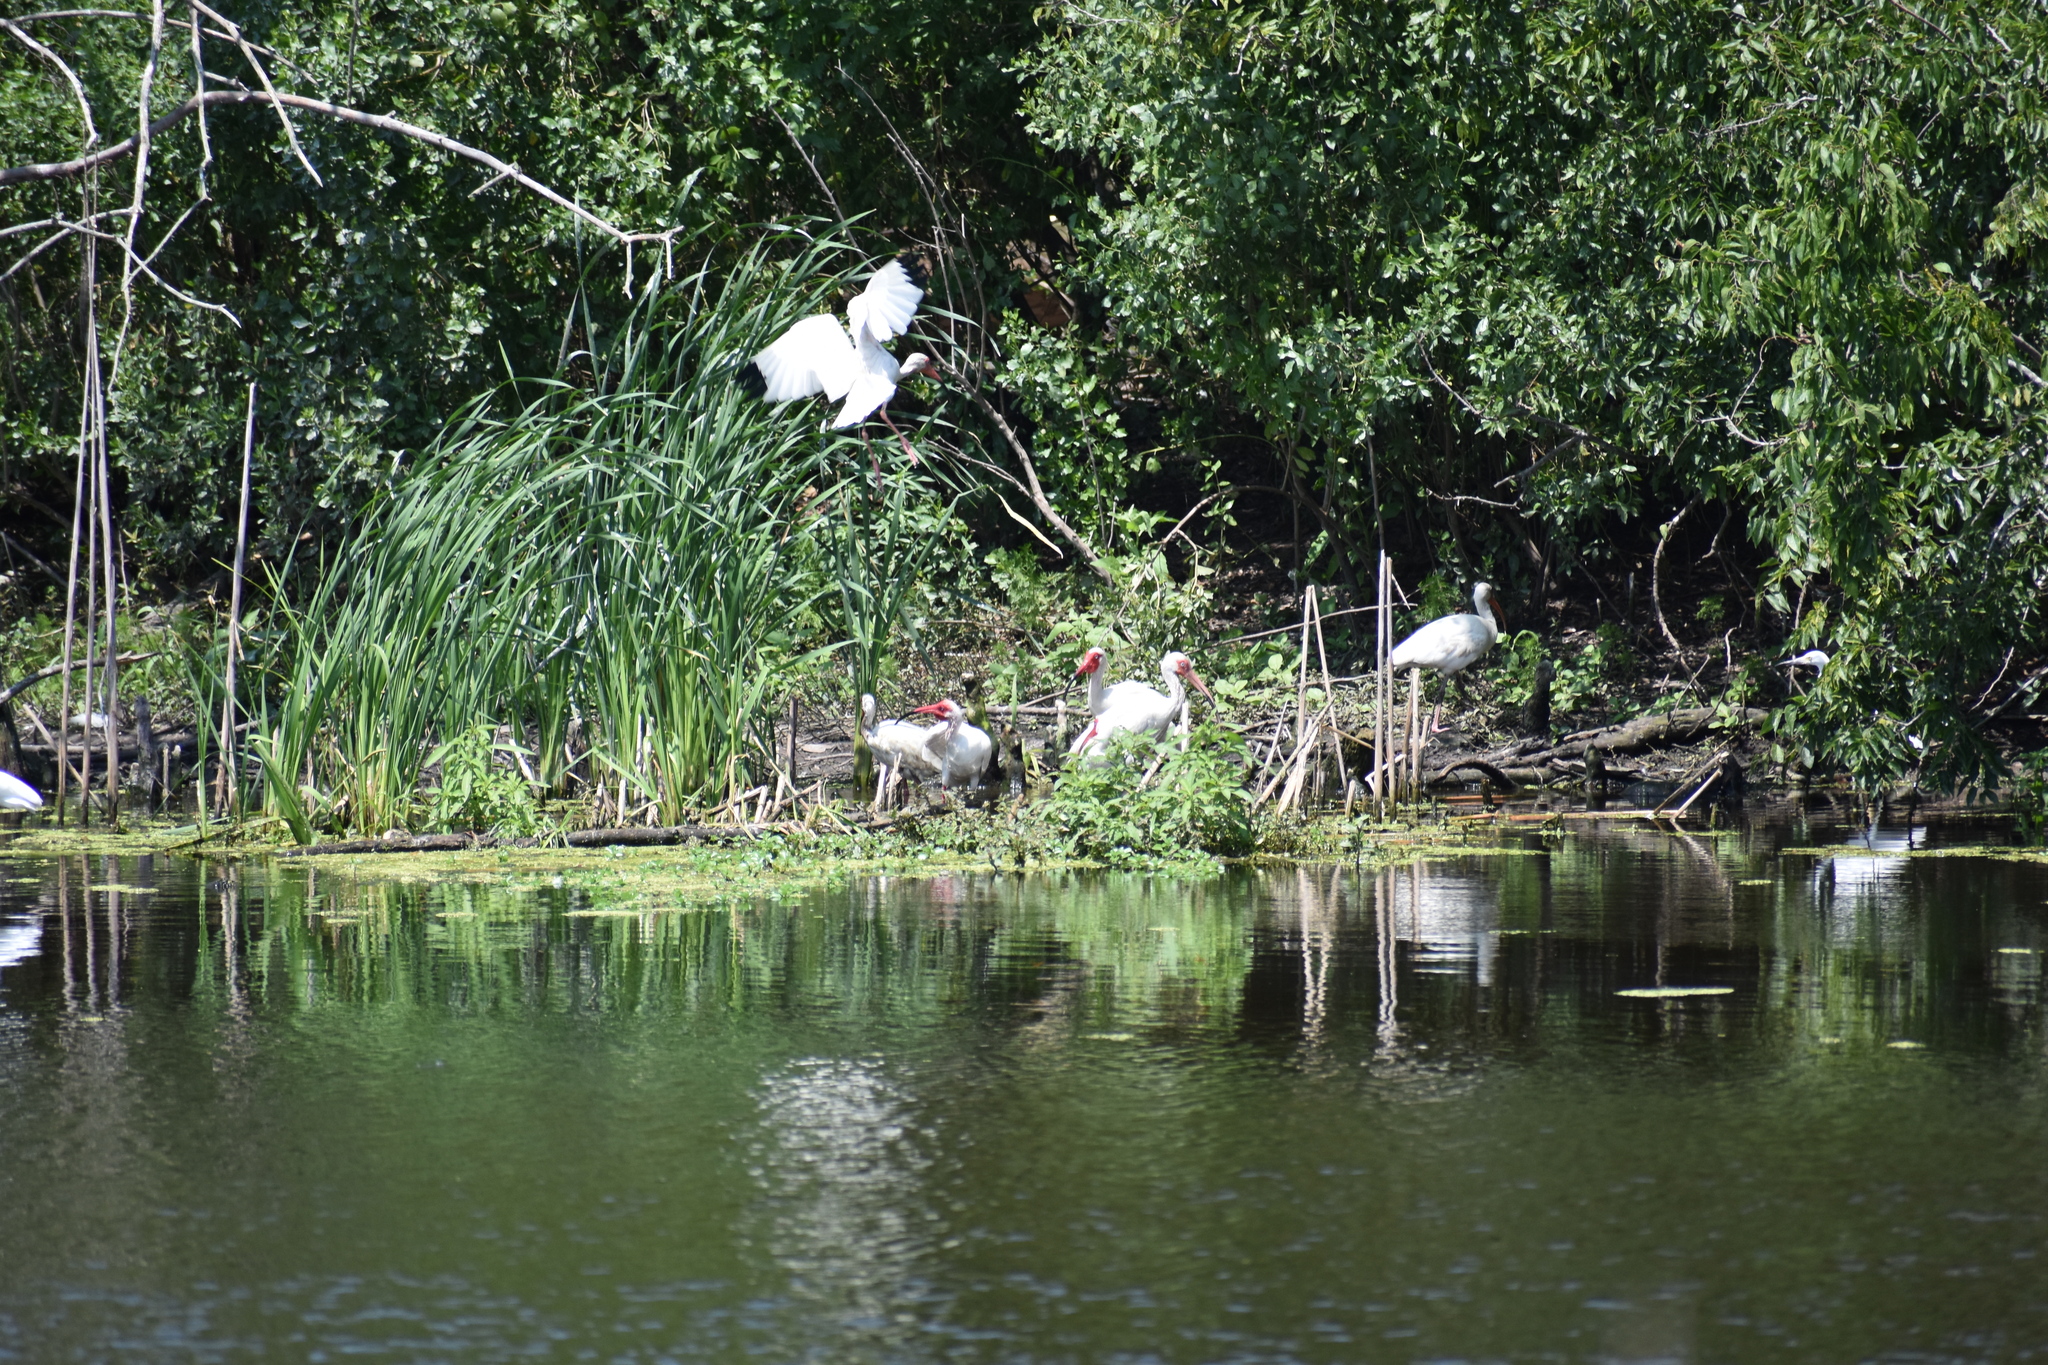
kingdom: Animalia
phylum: Chordata
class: Aves
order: Pelecaniformes
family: Threskiornithidae
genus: Eudocimus
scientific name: Eudocimus albus
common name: White ibis
